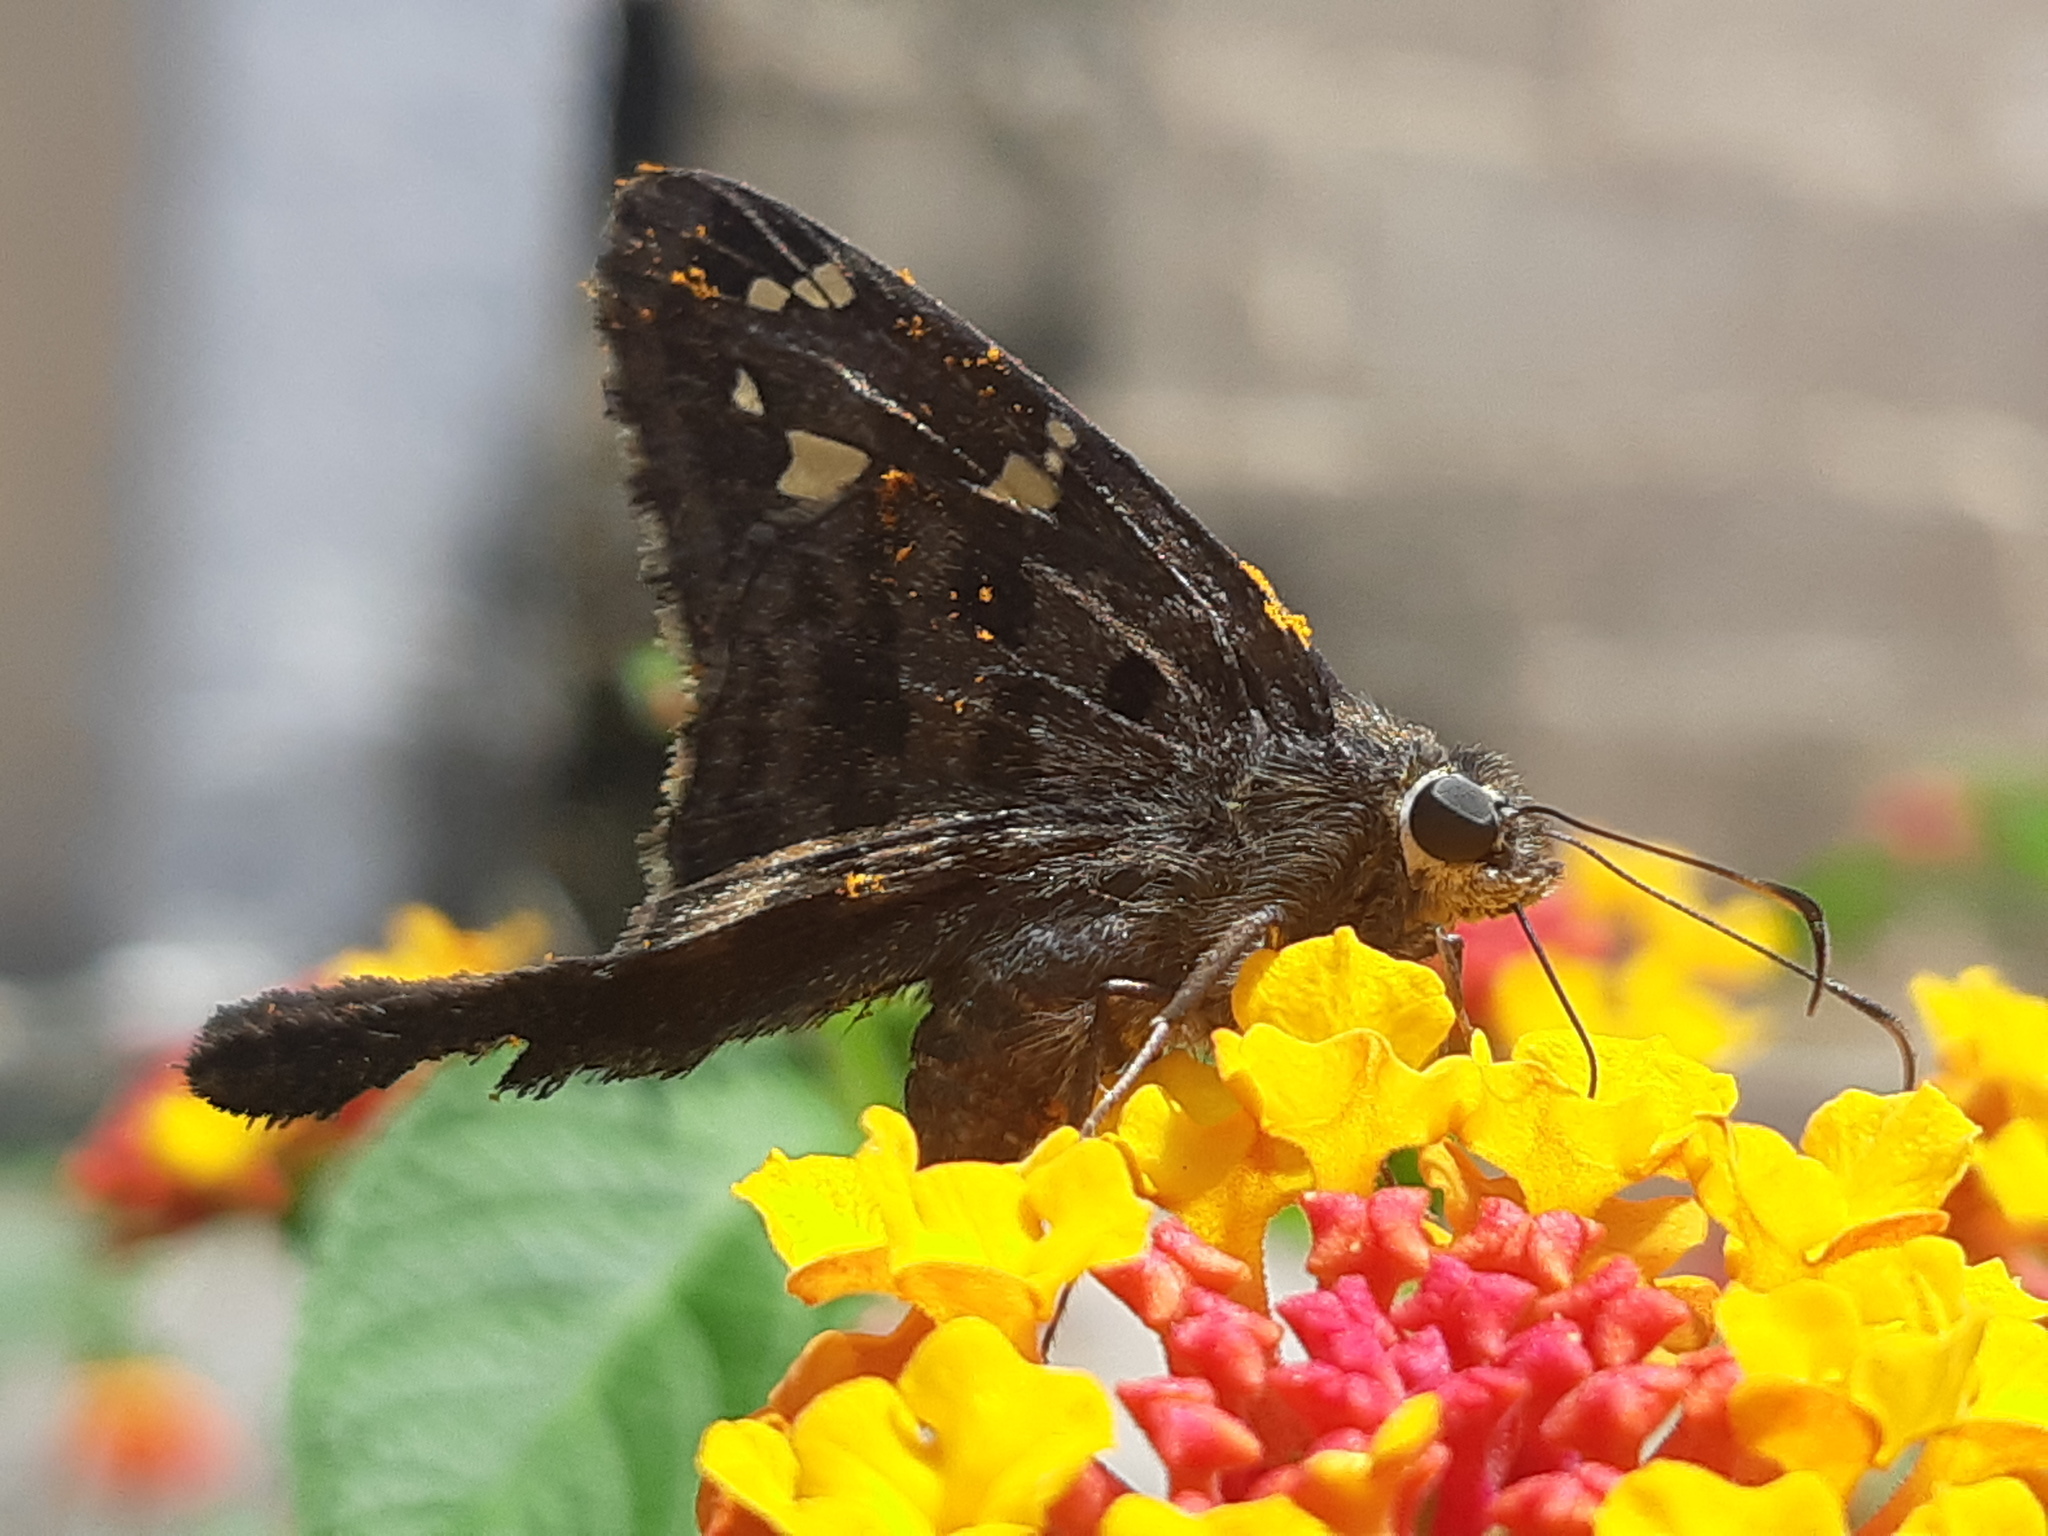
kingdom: Animalia
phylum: Arthropoda
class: Insecta
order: Lepidoptera
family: Hesperiidae
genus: Thorybes
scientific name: Thorybes
